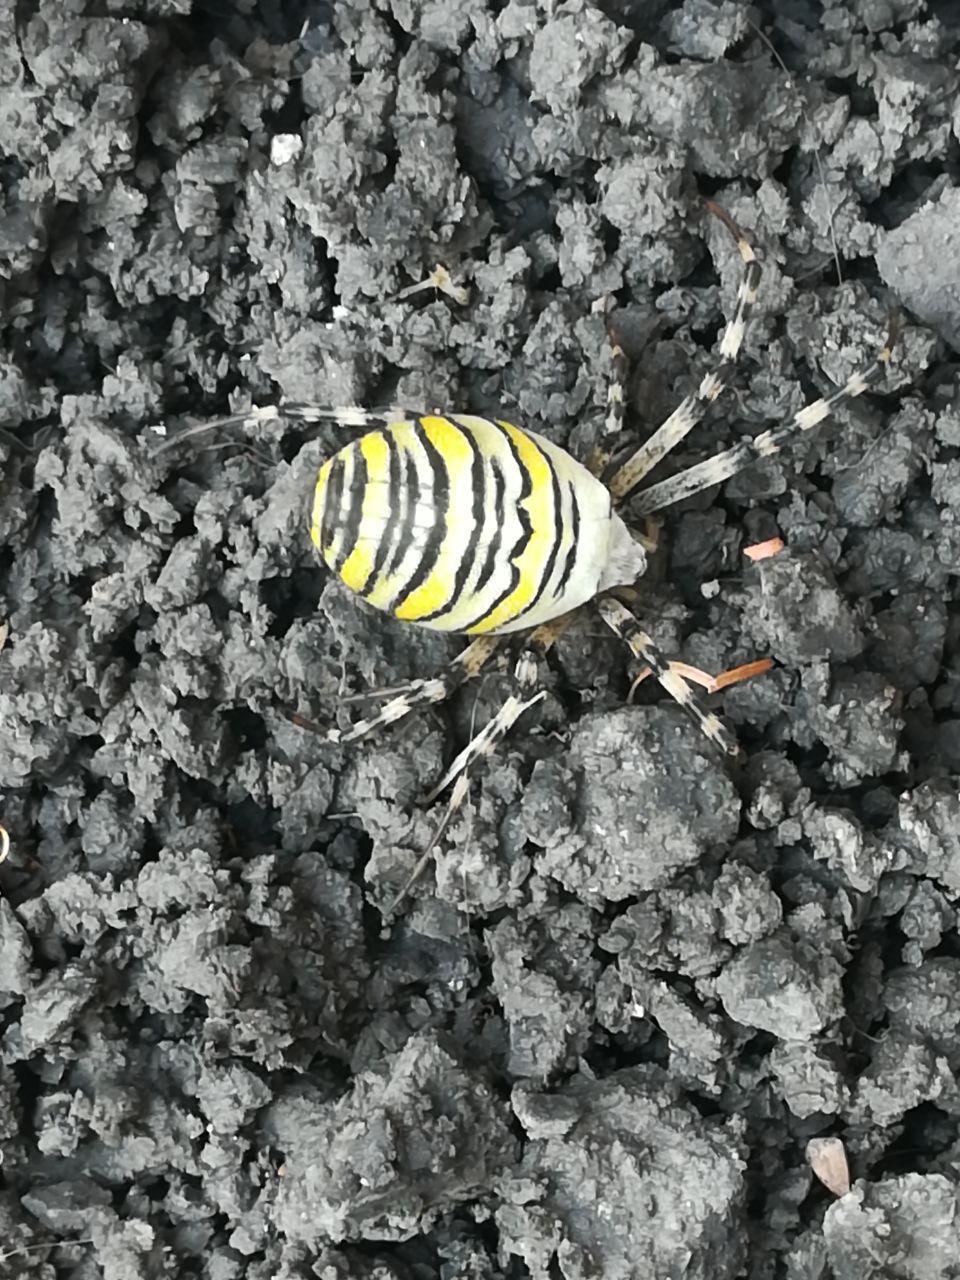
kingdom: Animalia
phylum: Arthropoda
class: Arachnida
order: Araneae
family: Araneidae
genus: Argiope
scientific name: Argiope bruennichi
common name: Wasp spider
